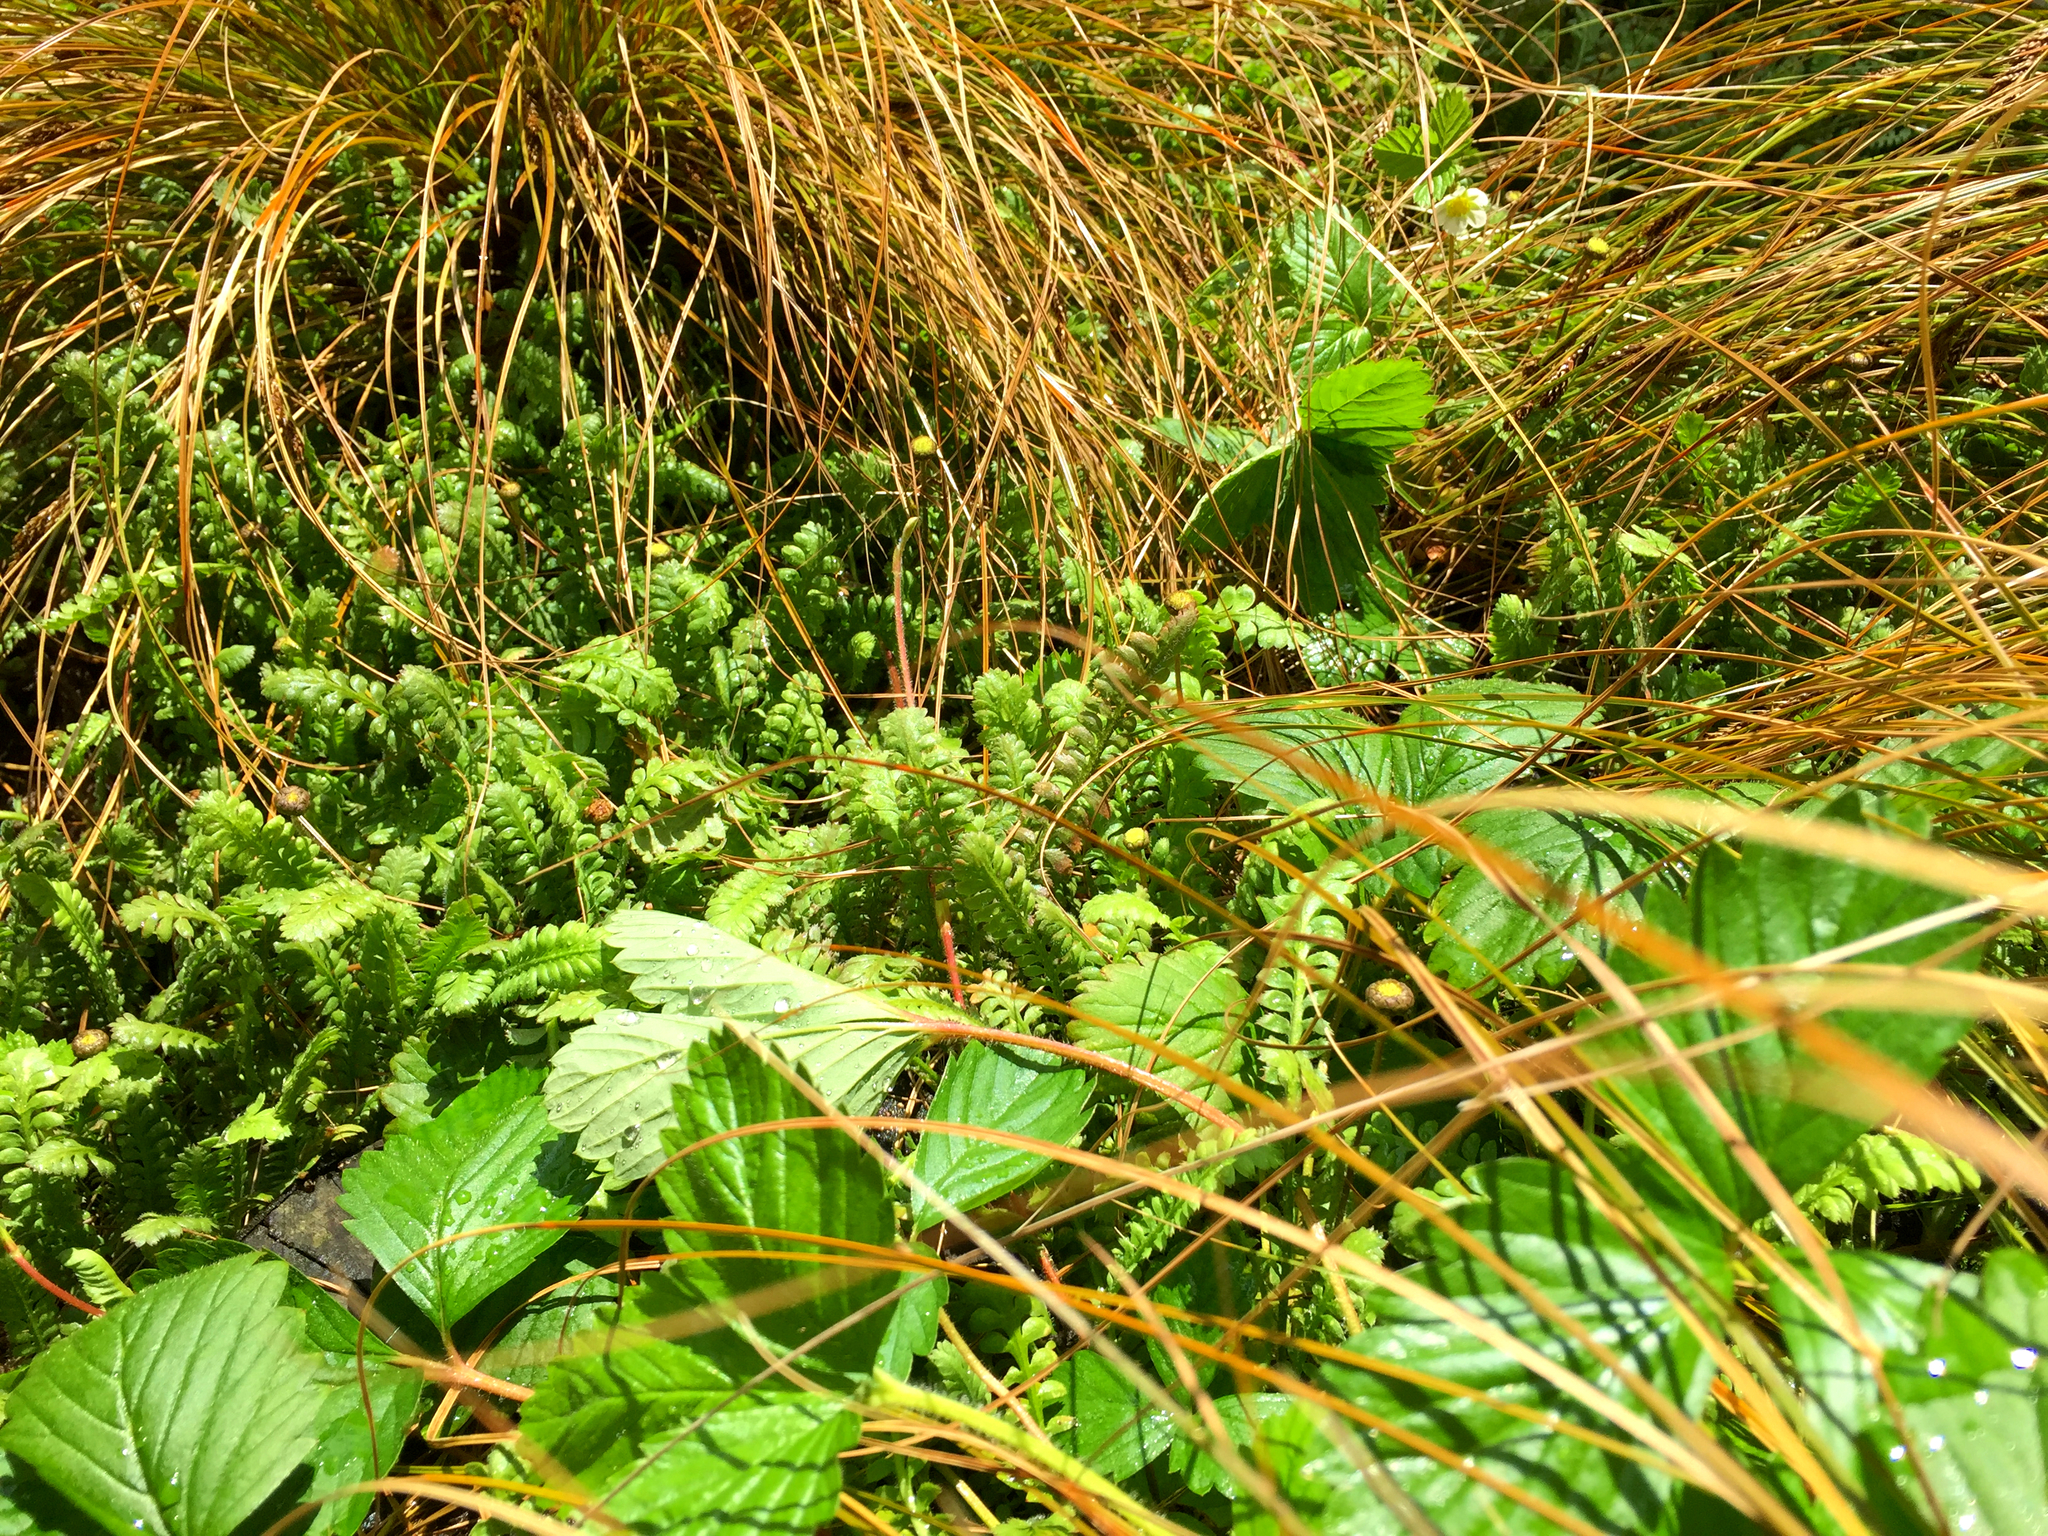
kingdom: Plantae
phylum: Tracheophyta
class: Magnoliopsida
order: Rosales
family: Rosaceae
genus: Fragaria
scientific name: Fragaria ananassa
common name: Garden strawberry
